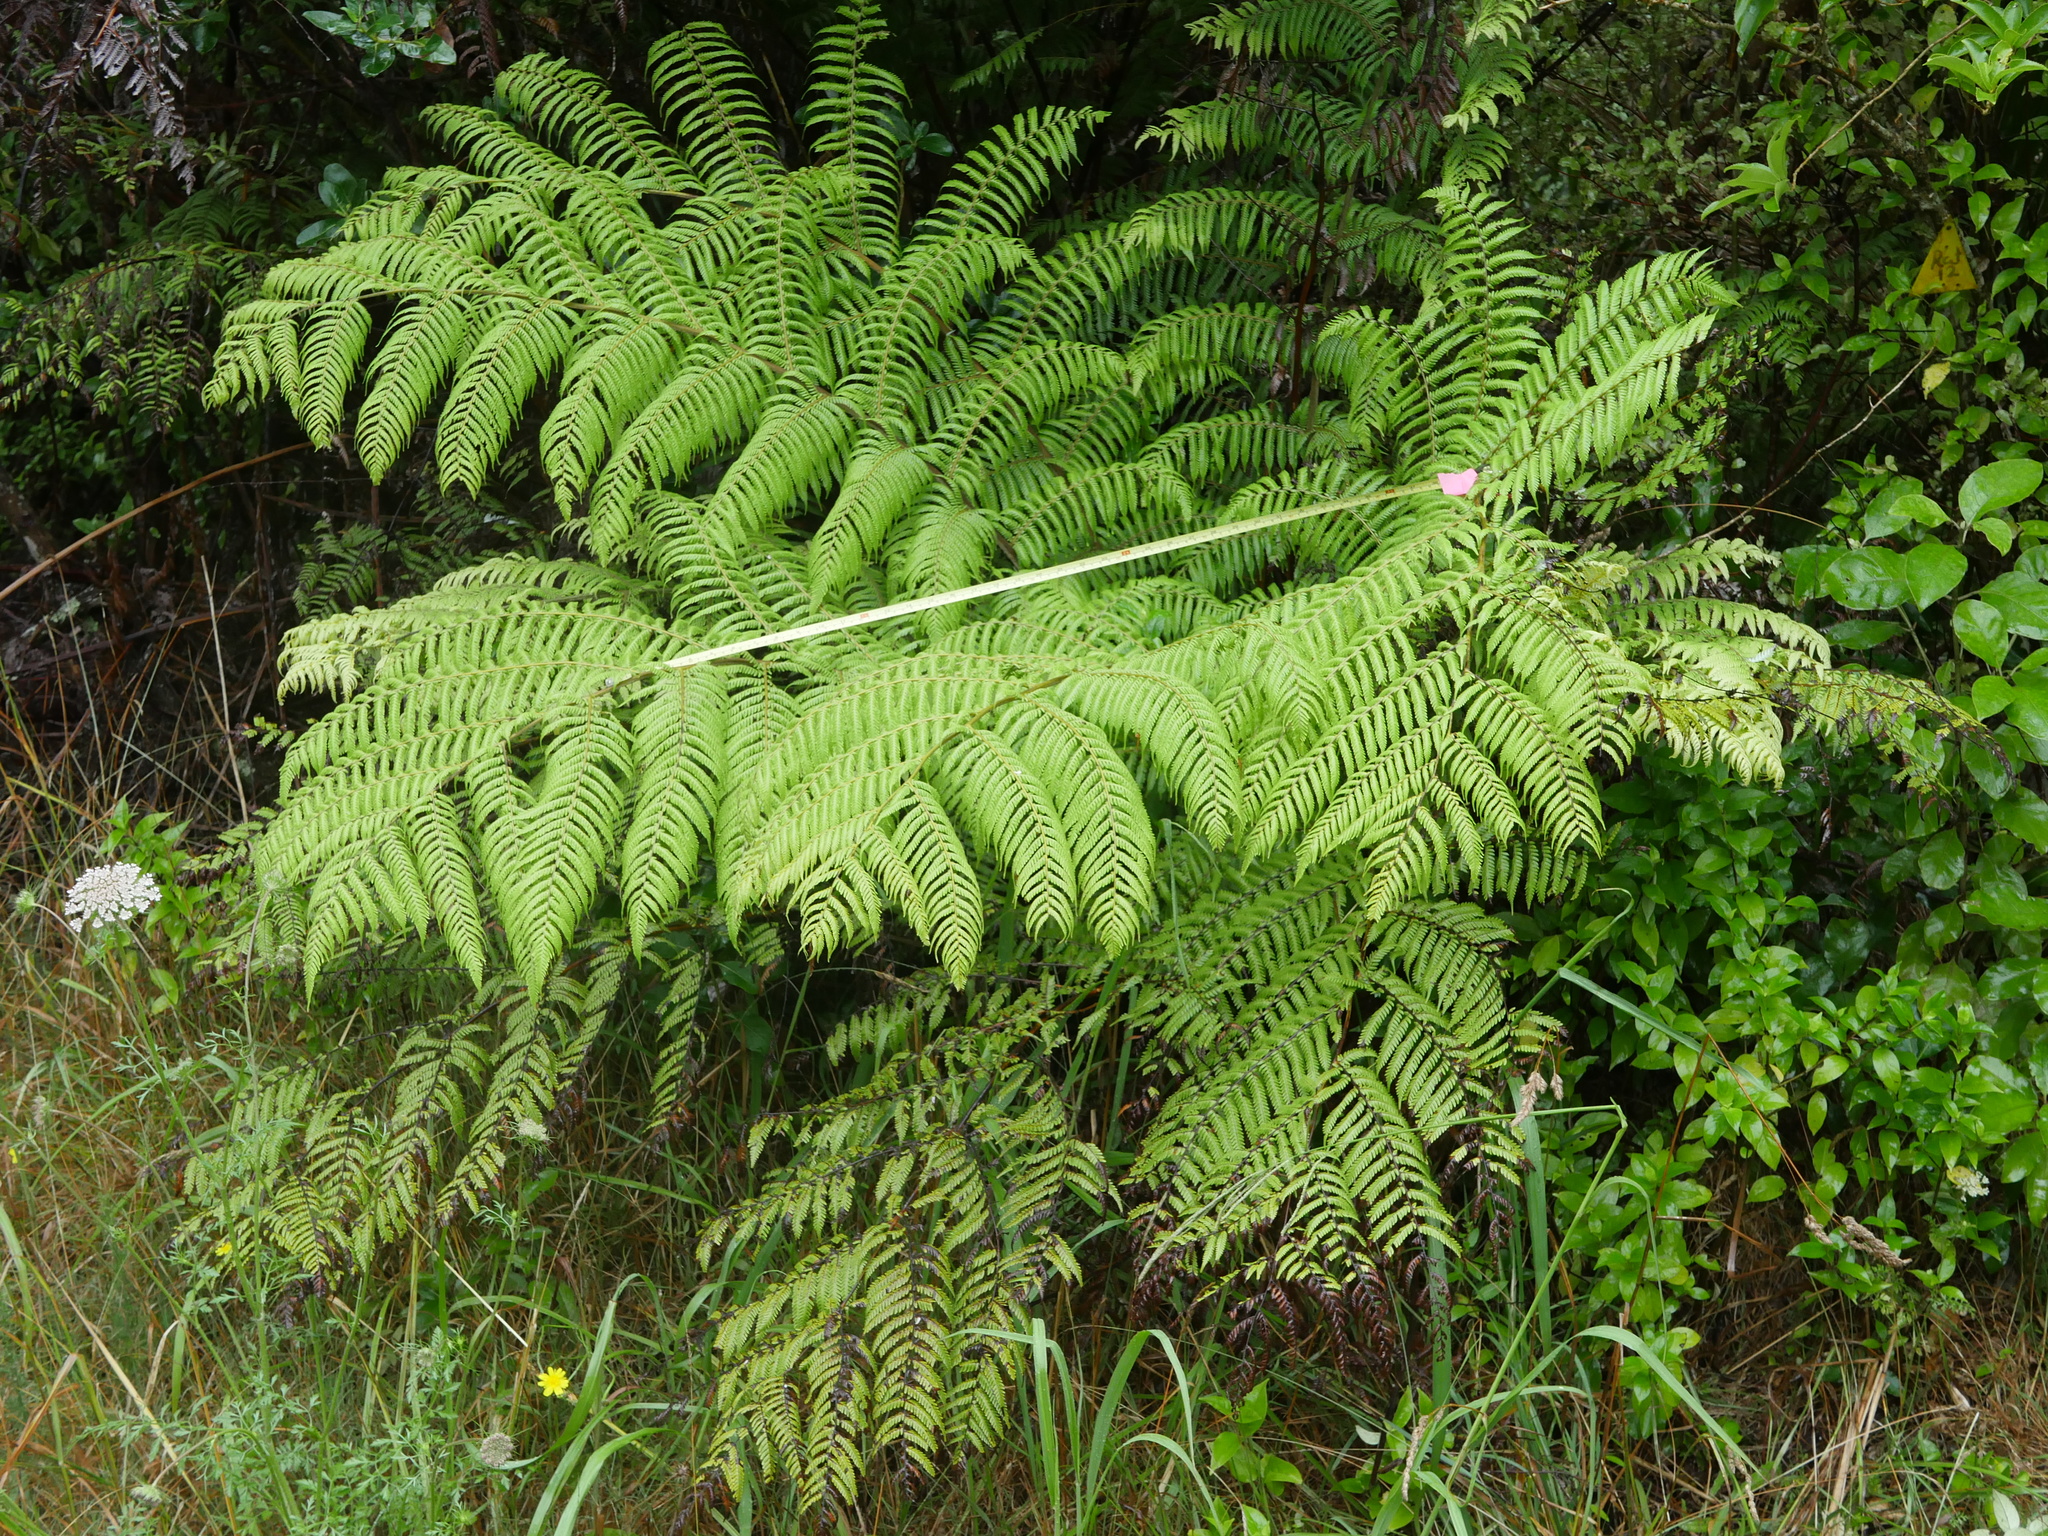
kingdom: Plantae
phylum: Tracheophyta
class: Polypodiopsida
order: Cyatheales
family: Cyatheaceae
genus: Alsophila
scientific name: Alsophila dealbata
